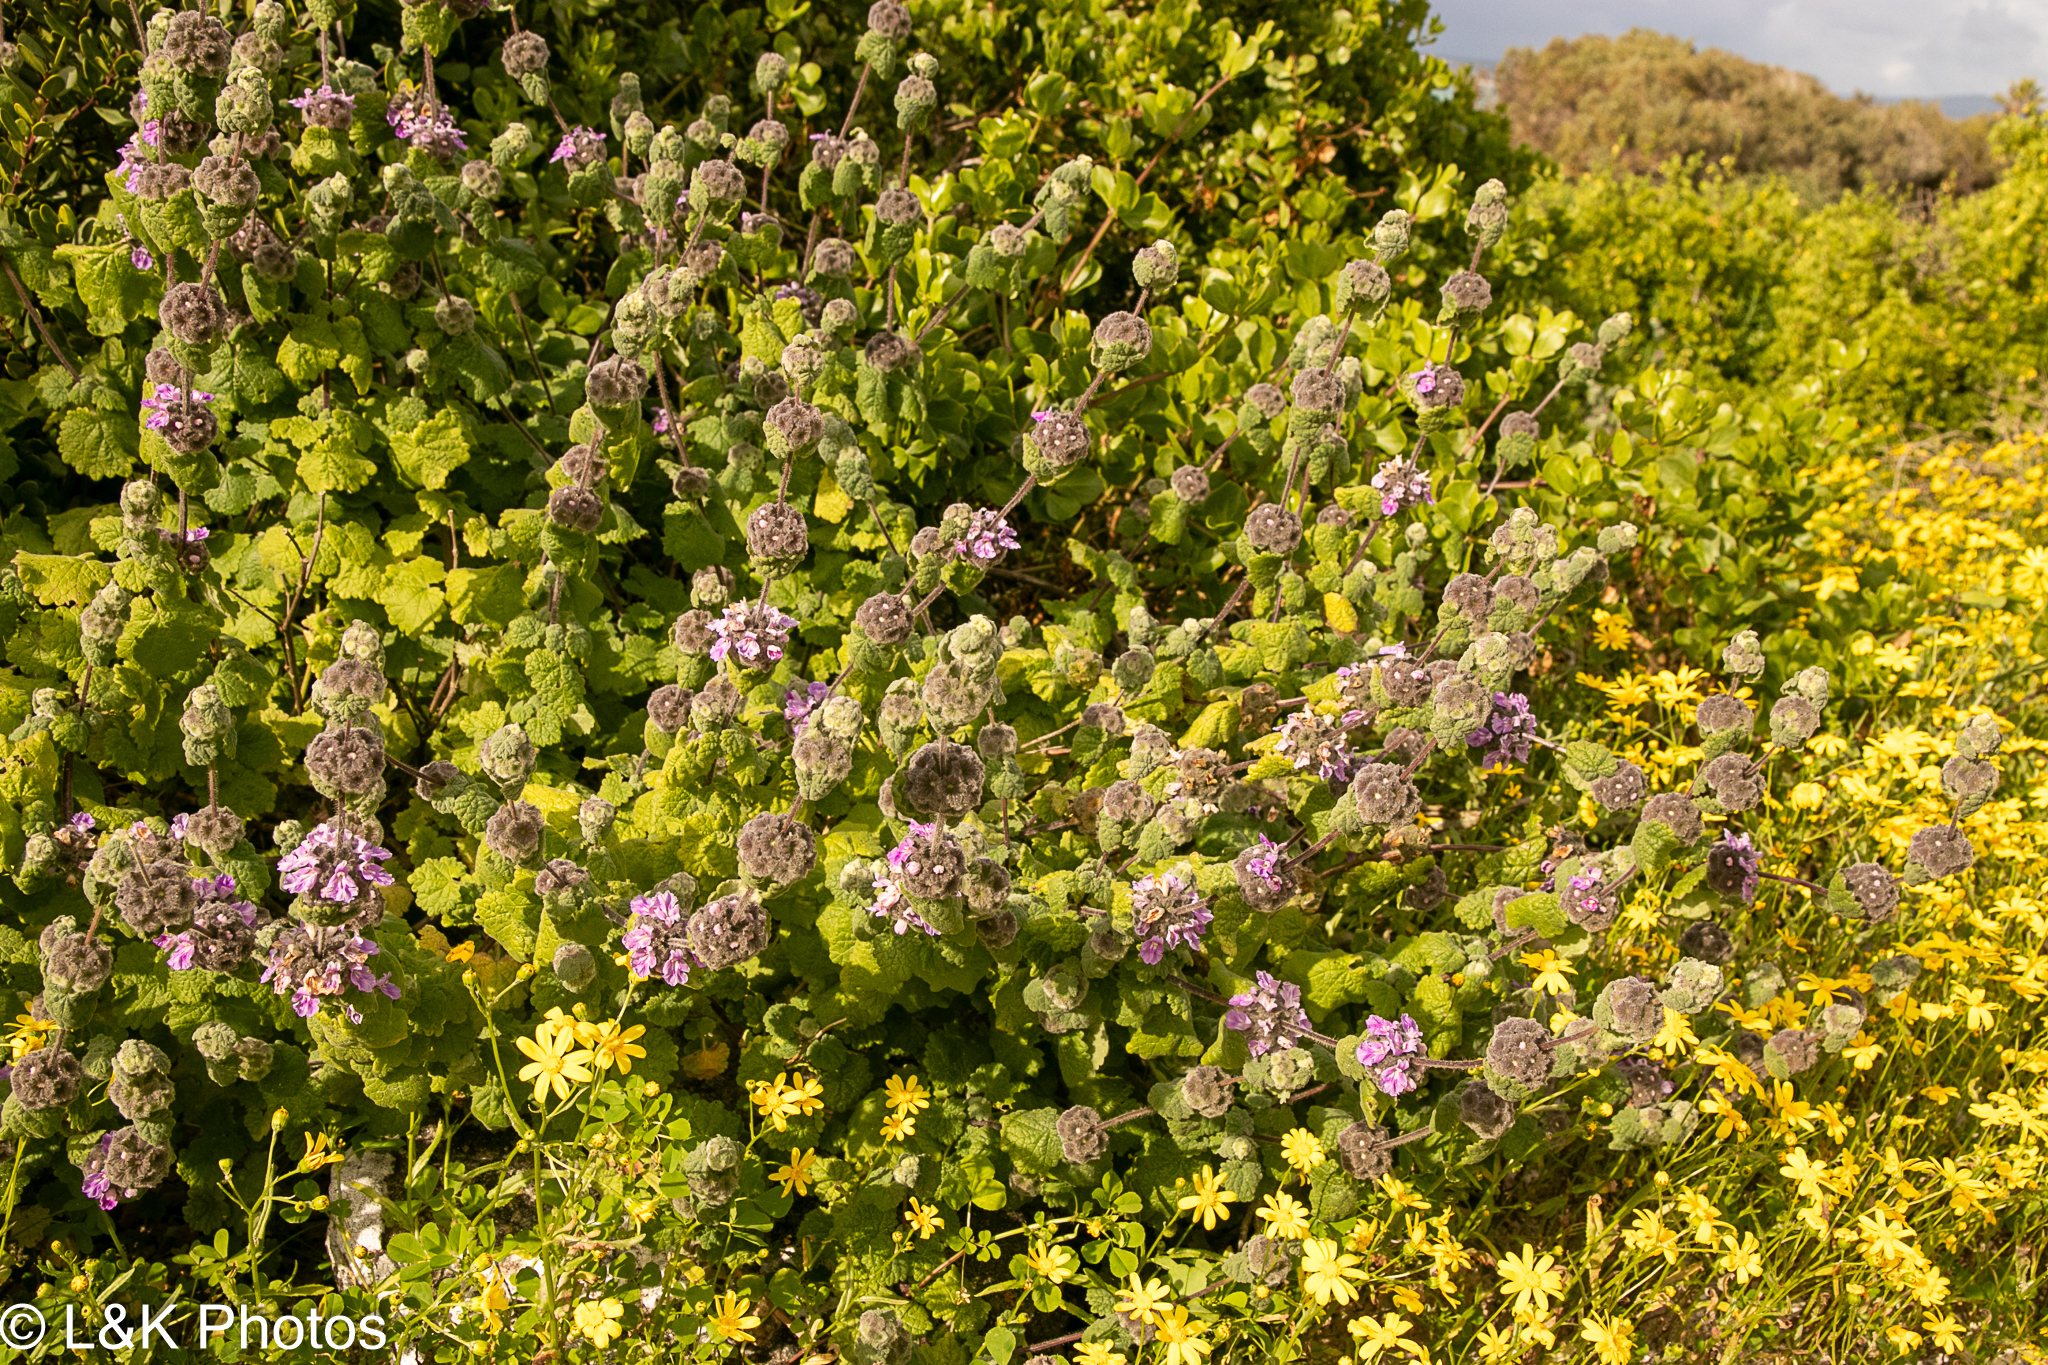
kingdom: Plantae
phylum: Tracheophyta
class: Magnoliopsida
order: Lamiales
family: Lamiaceae
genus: Pseudodictamnus
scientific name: Pseudodictamnus africanus
